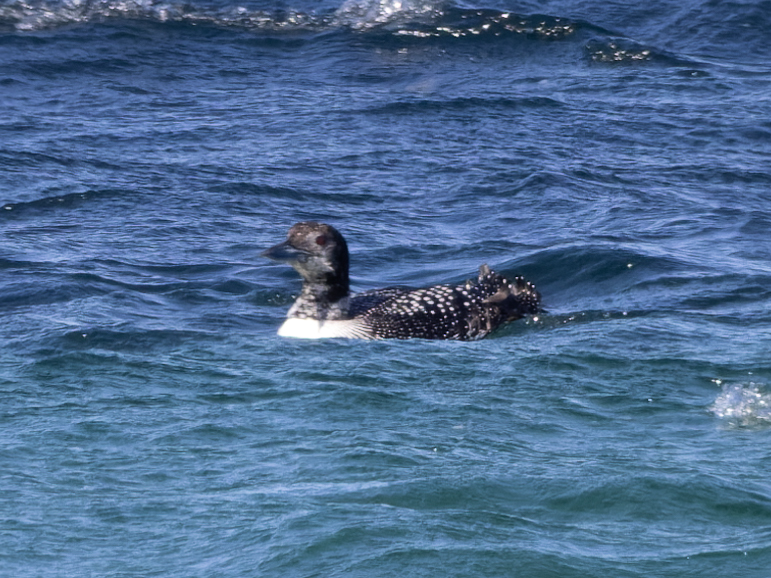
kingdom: Animalia
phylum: Chordata
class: Aves
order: Gaviiformes
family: Gaviidae
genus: Gavia
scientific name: Gavia immer
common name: Common loon
